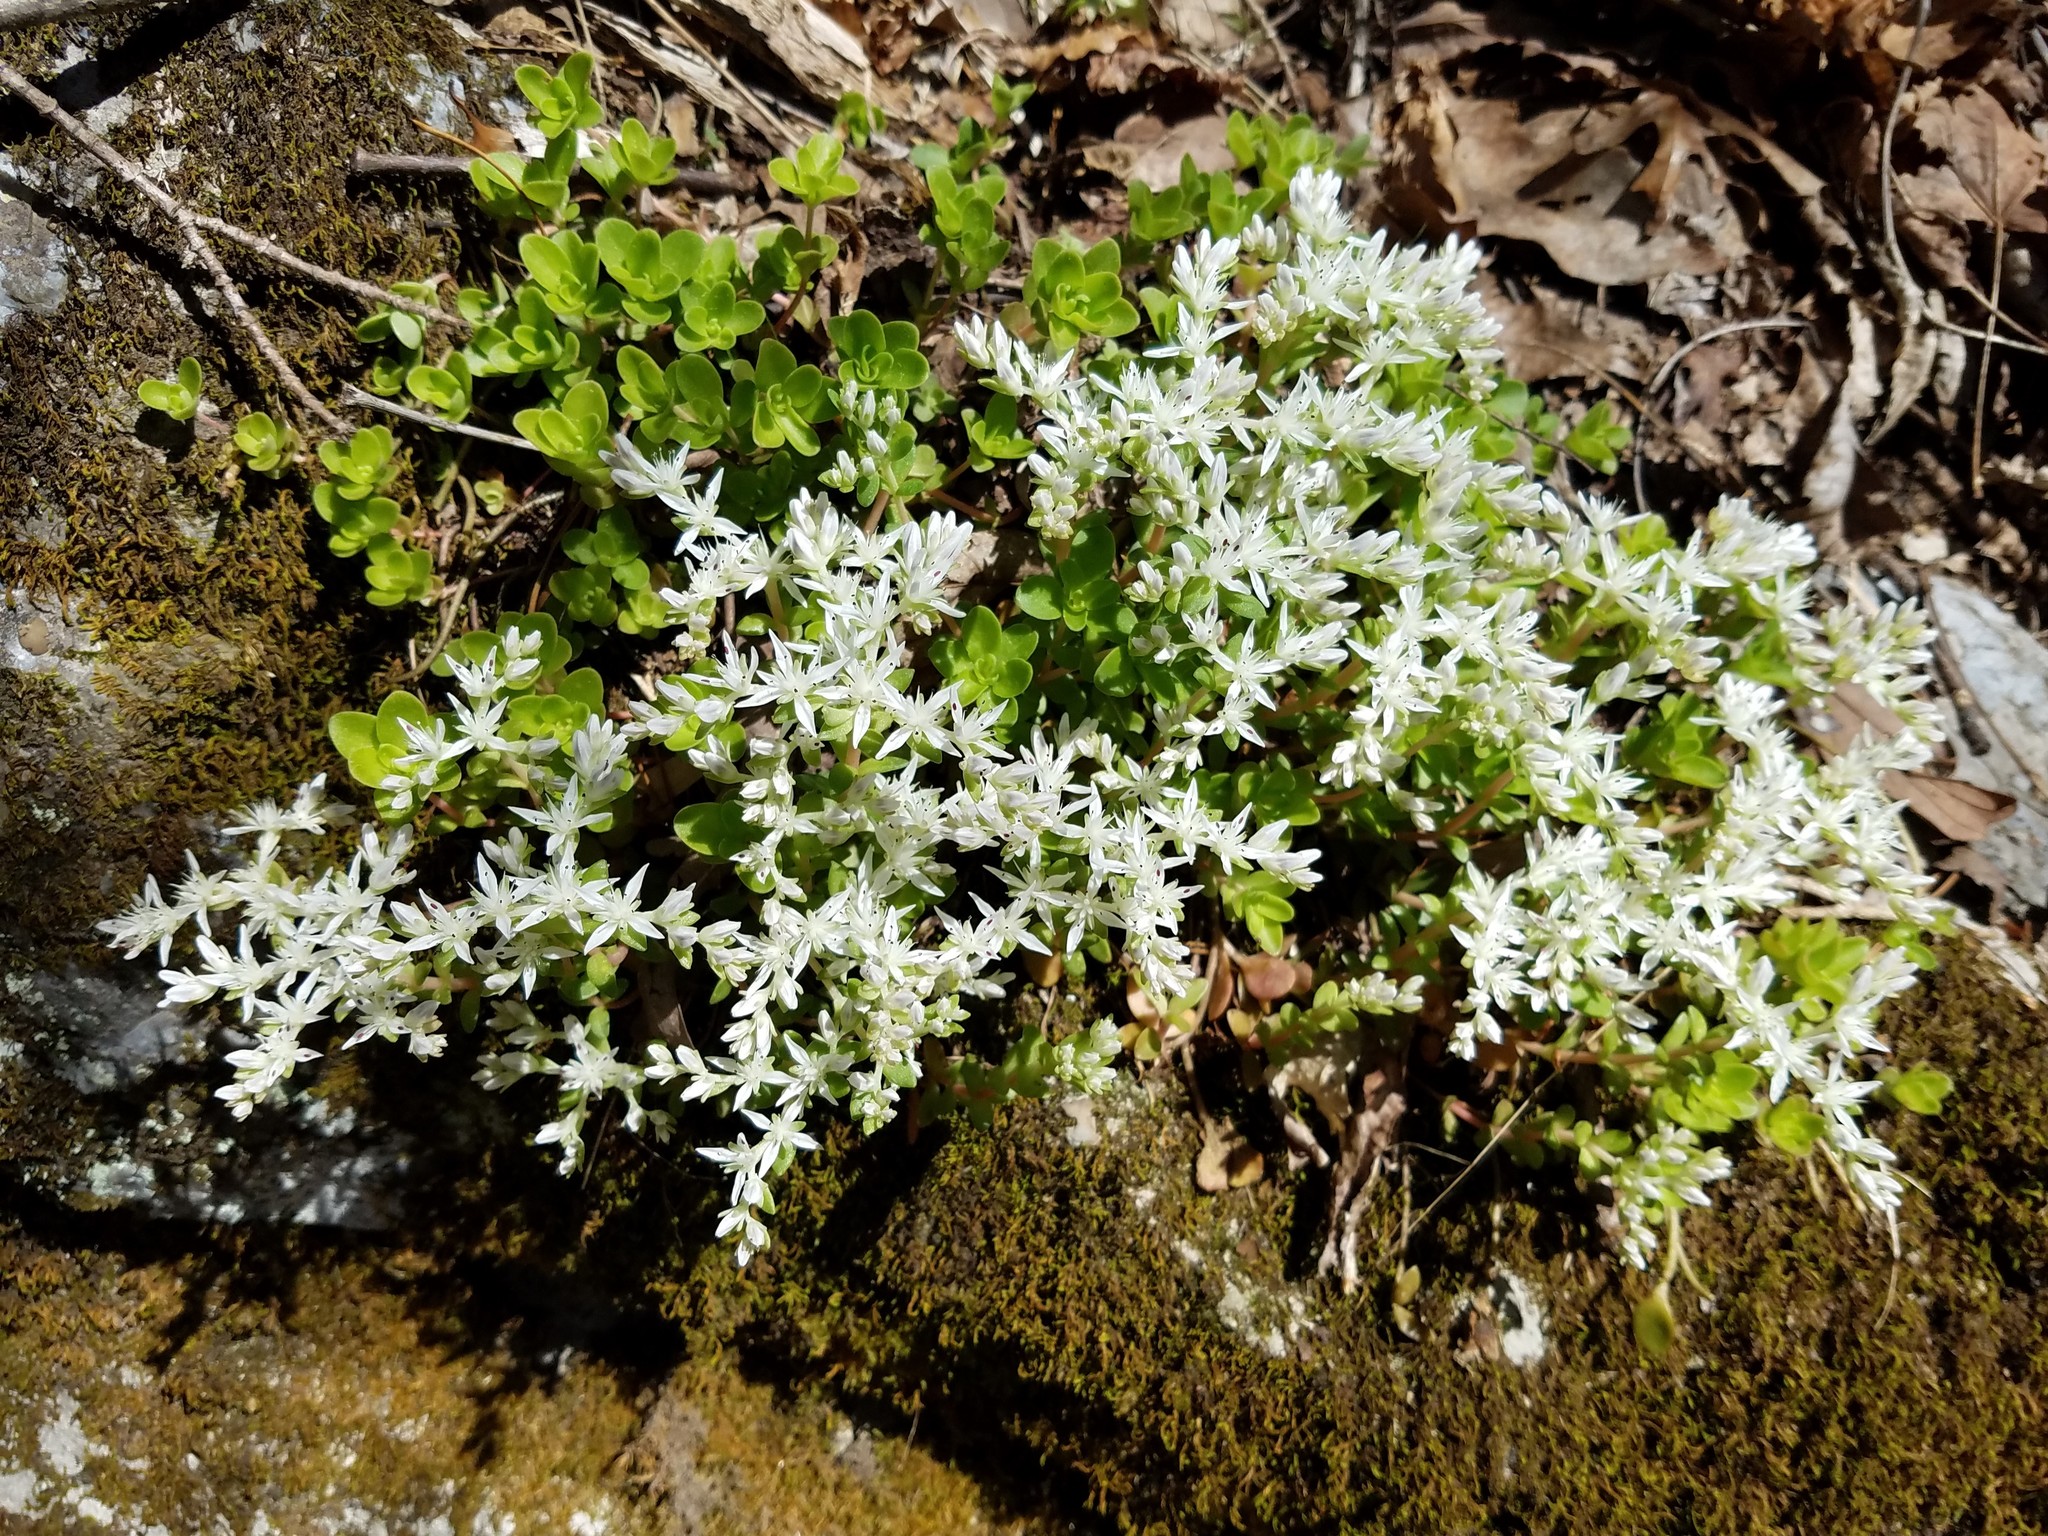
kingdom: Plantae
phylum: Tracheophyta
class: Magnoliopsida
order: Saxifragales
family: Crassulaceae
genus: Sedum
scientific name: Sedum ternatum
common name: Wild stonecrop
